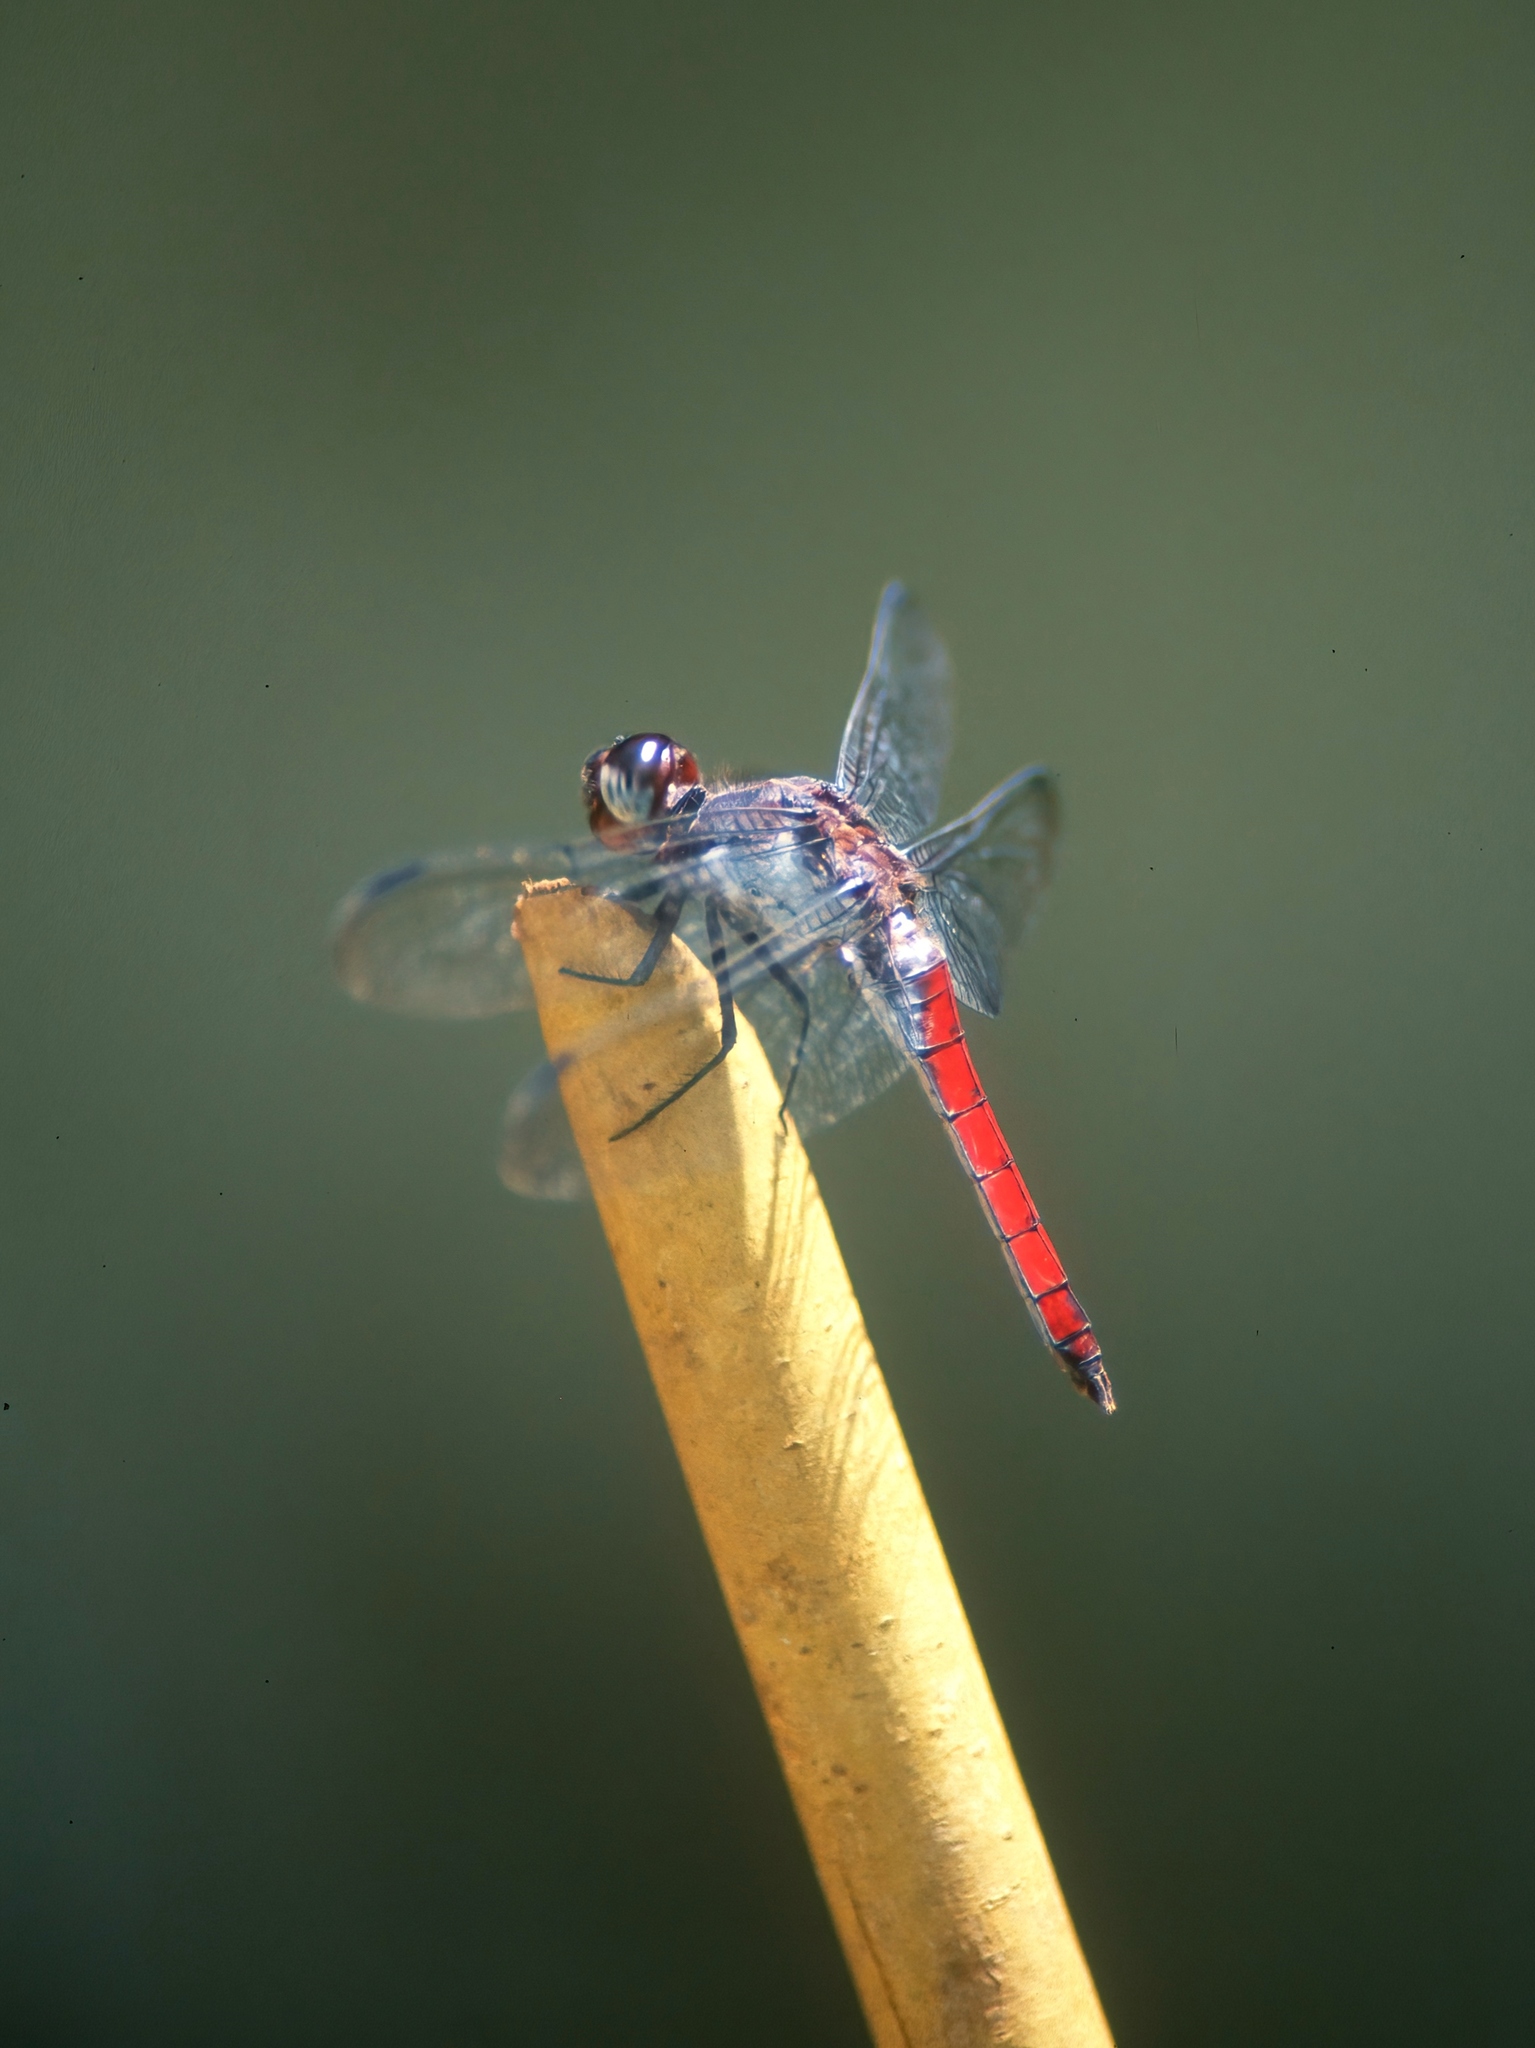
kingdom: Animalia
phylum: Arthropoda
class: Insecta
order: Odonata
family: Libellulidae
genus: Libellula
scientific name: Libellula herculea
